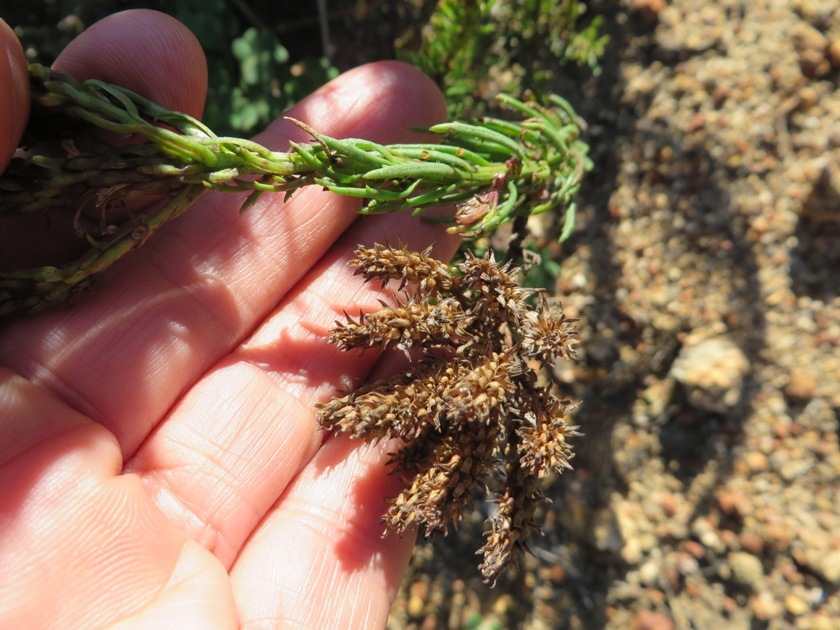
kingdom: Plantae
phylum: Tracheophyta
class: Magnoliopsida
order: Lamiales
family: Scrophulariaceae
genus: Pseudoselago
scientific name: Pseudoselago spuria
